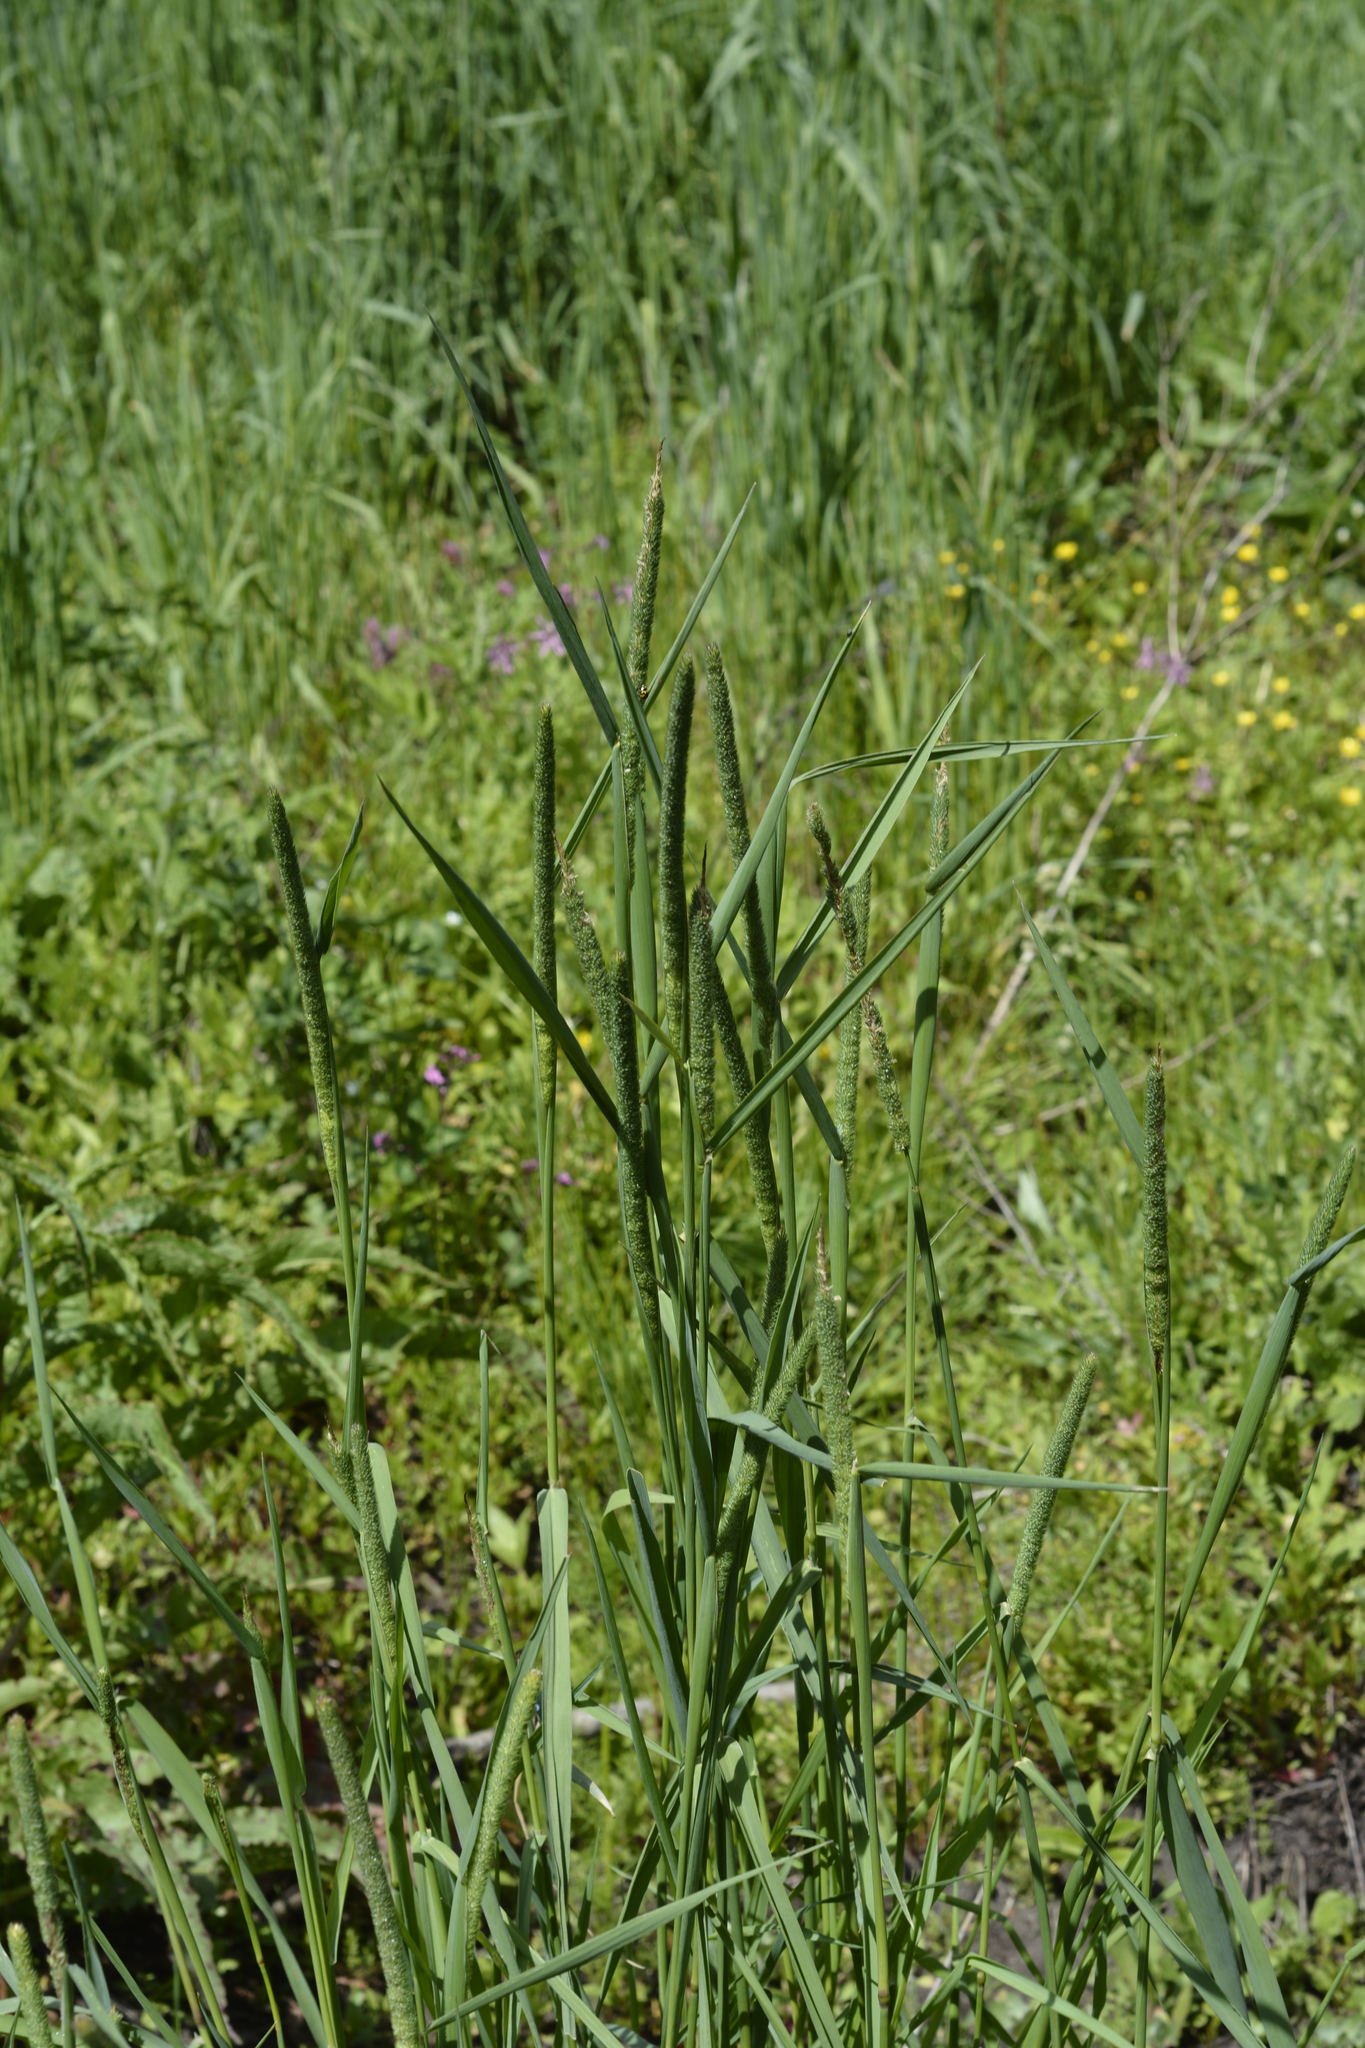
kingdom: Plantae
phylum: Tracheophyta
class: Liliopsida
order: Poales
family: Poaceae
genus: Phleum
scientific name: Phleum pratense
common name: Timothy grass
